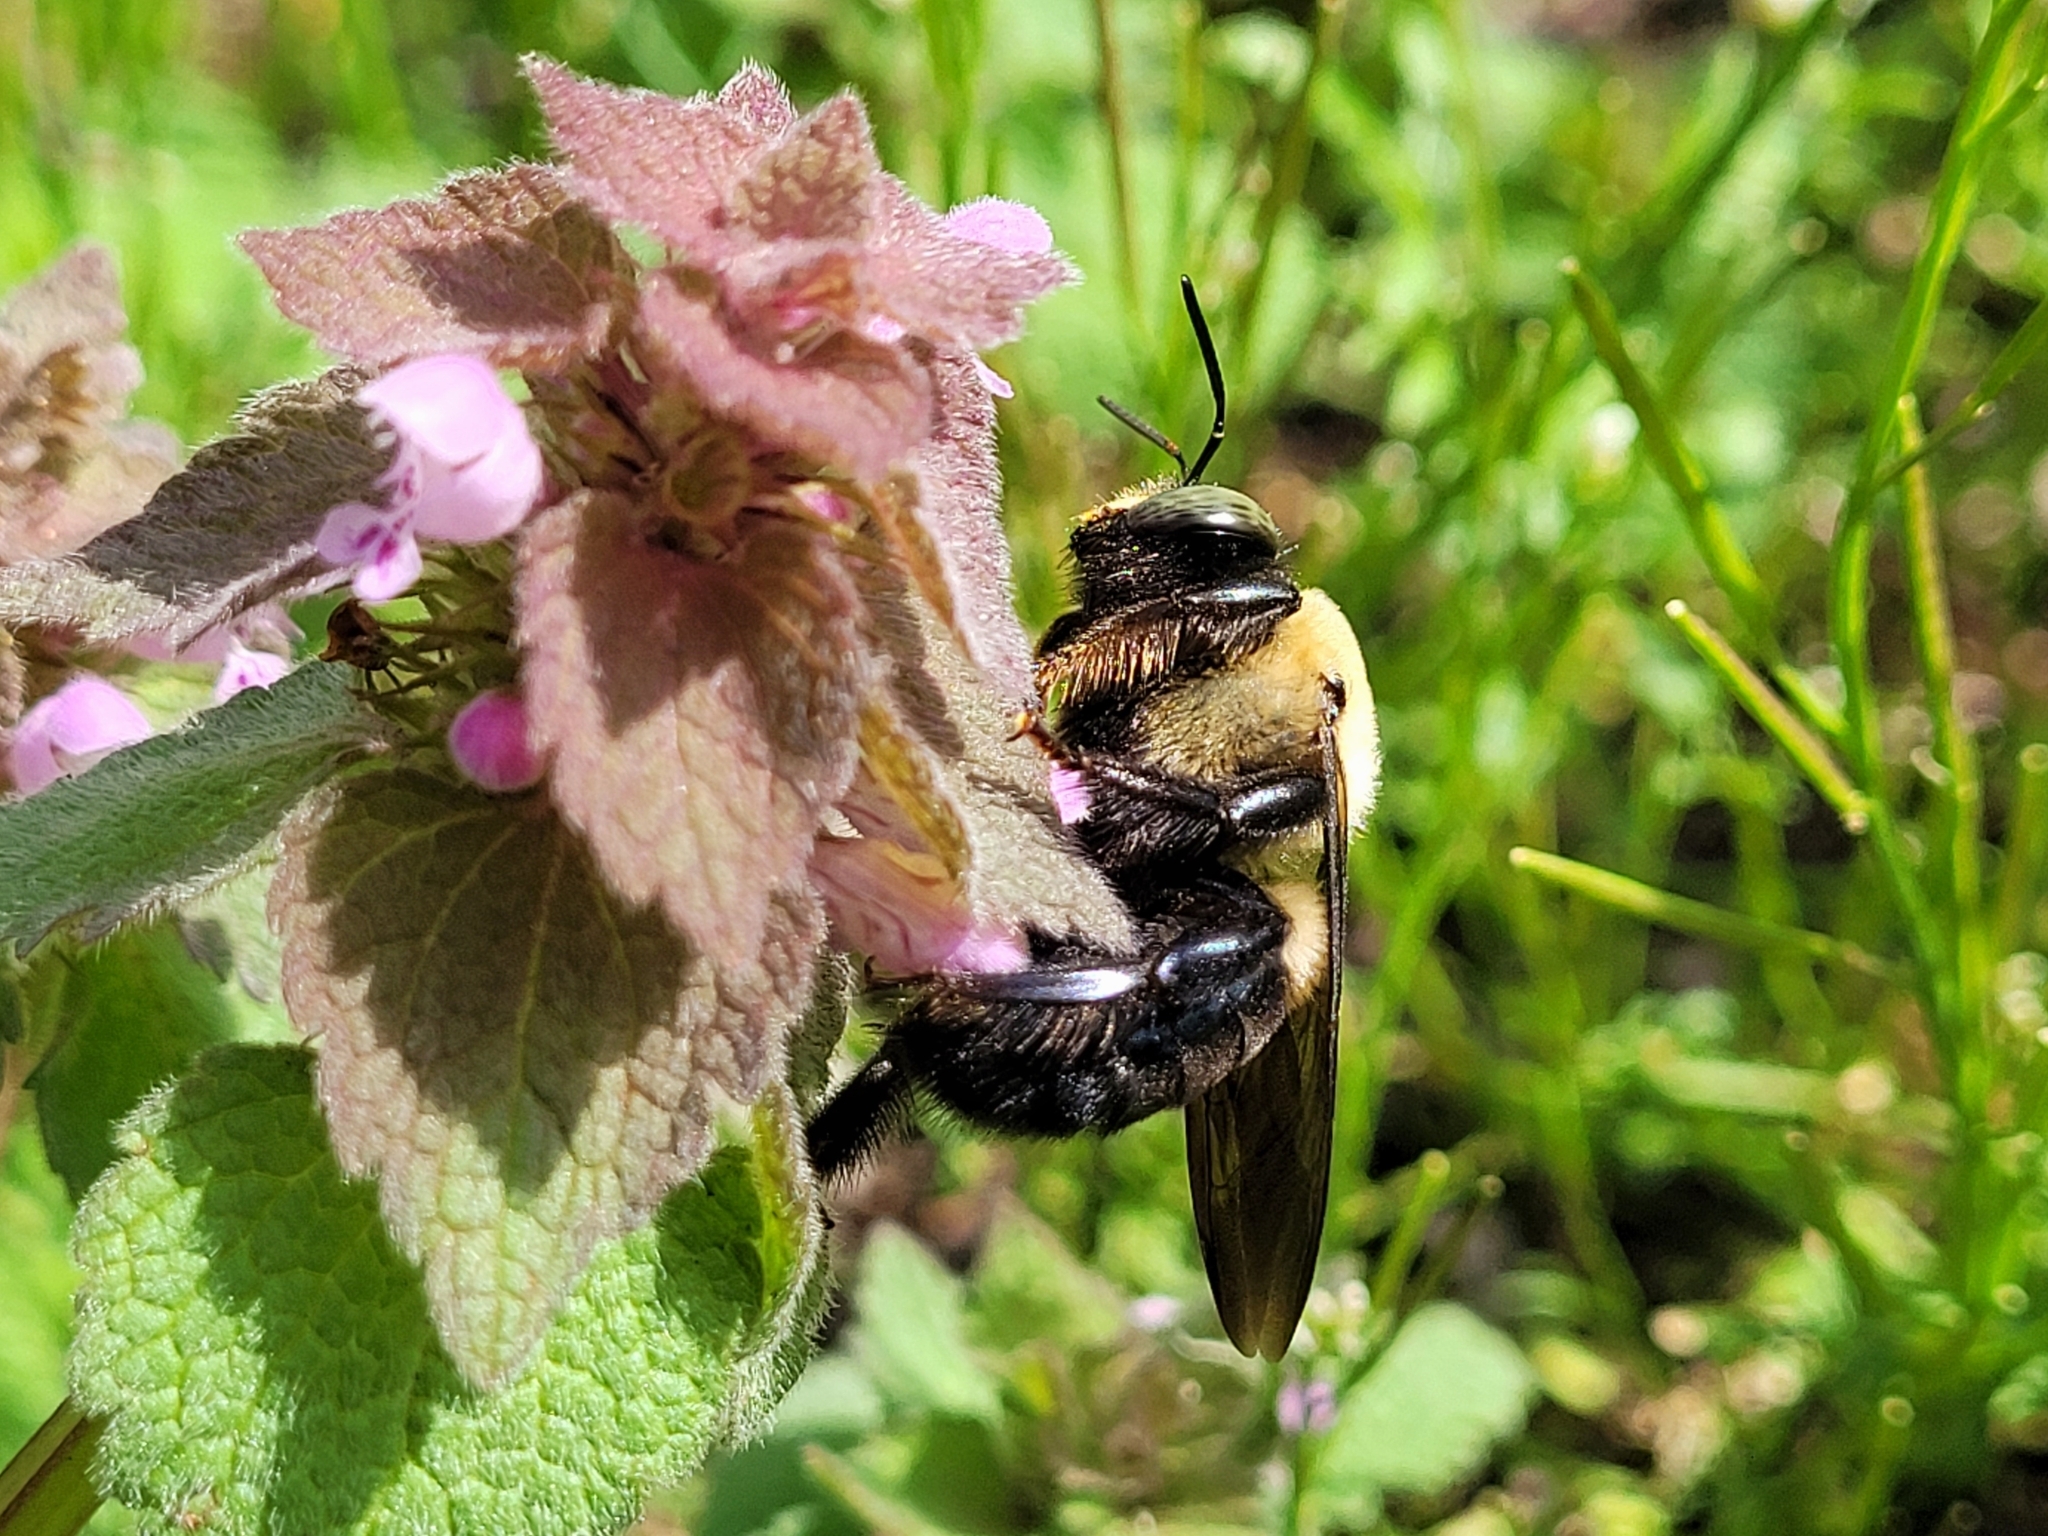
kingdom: Animalia
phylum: Arthropoda
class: Insecta
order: Hymenoptera
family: Apidae
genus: Xylocopa
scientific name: Xylocopa virginica
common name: Carpenter bee
